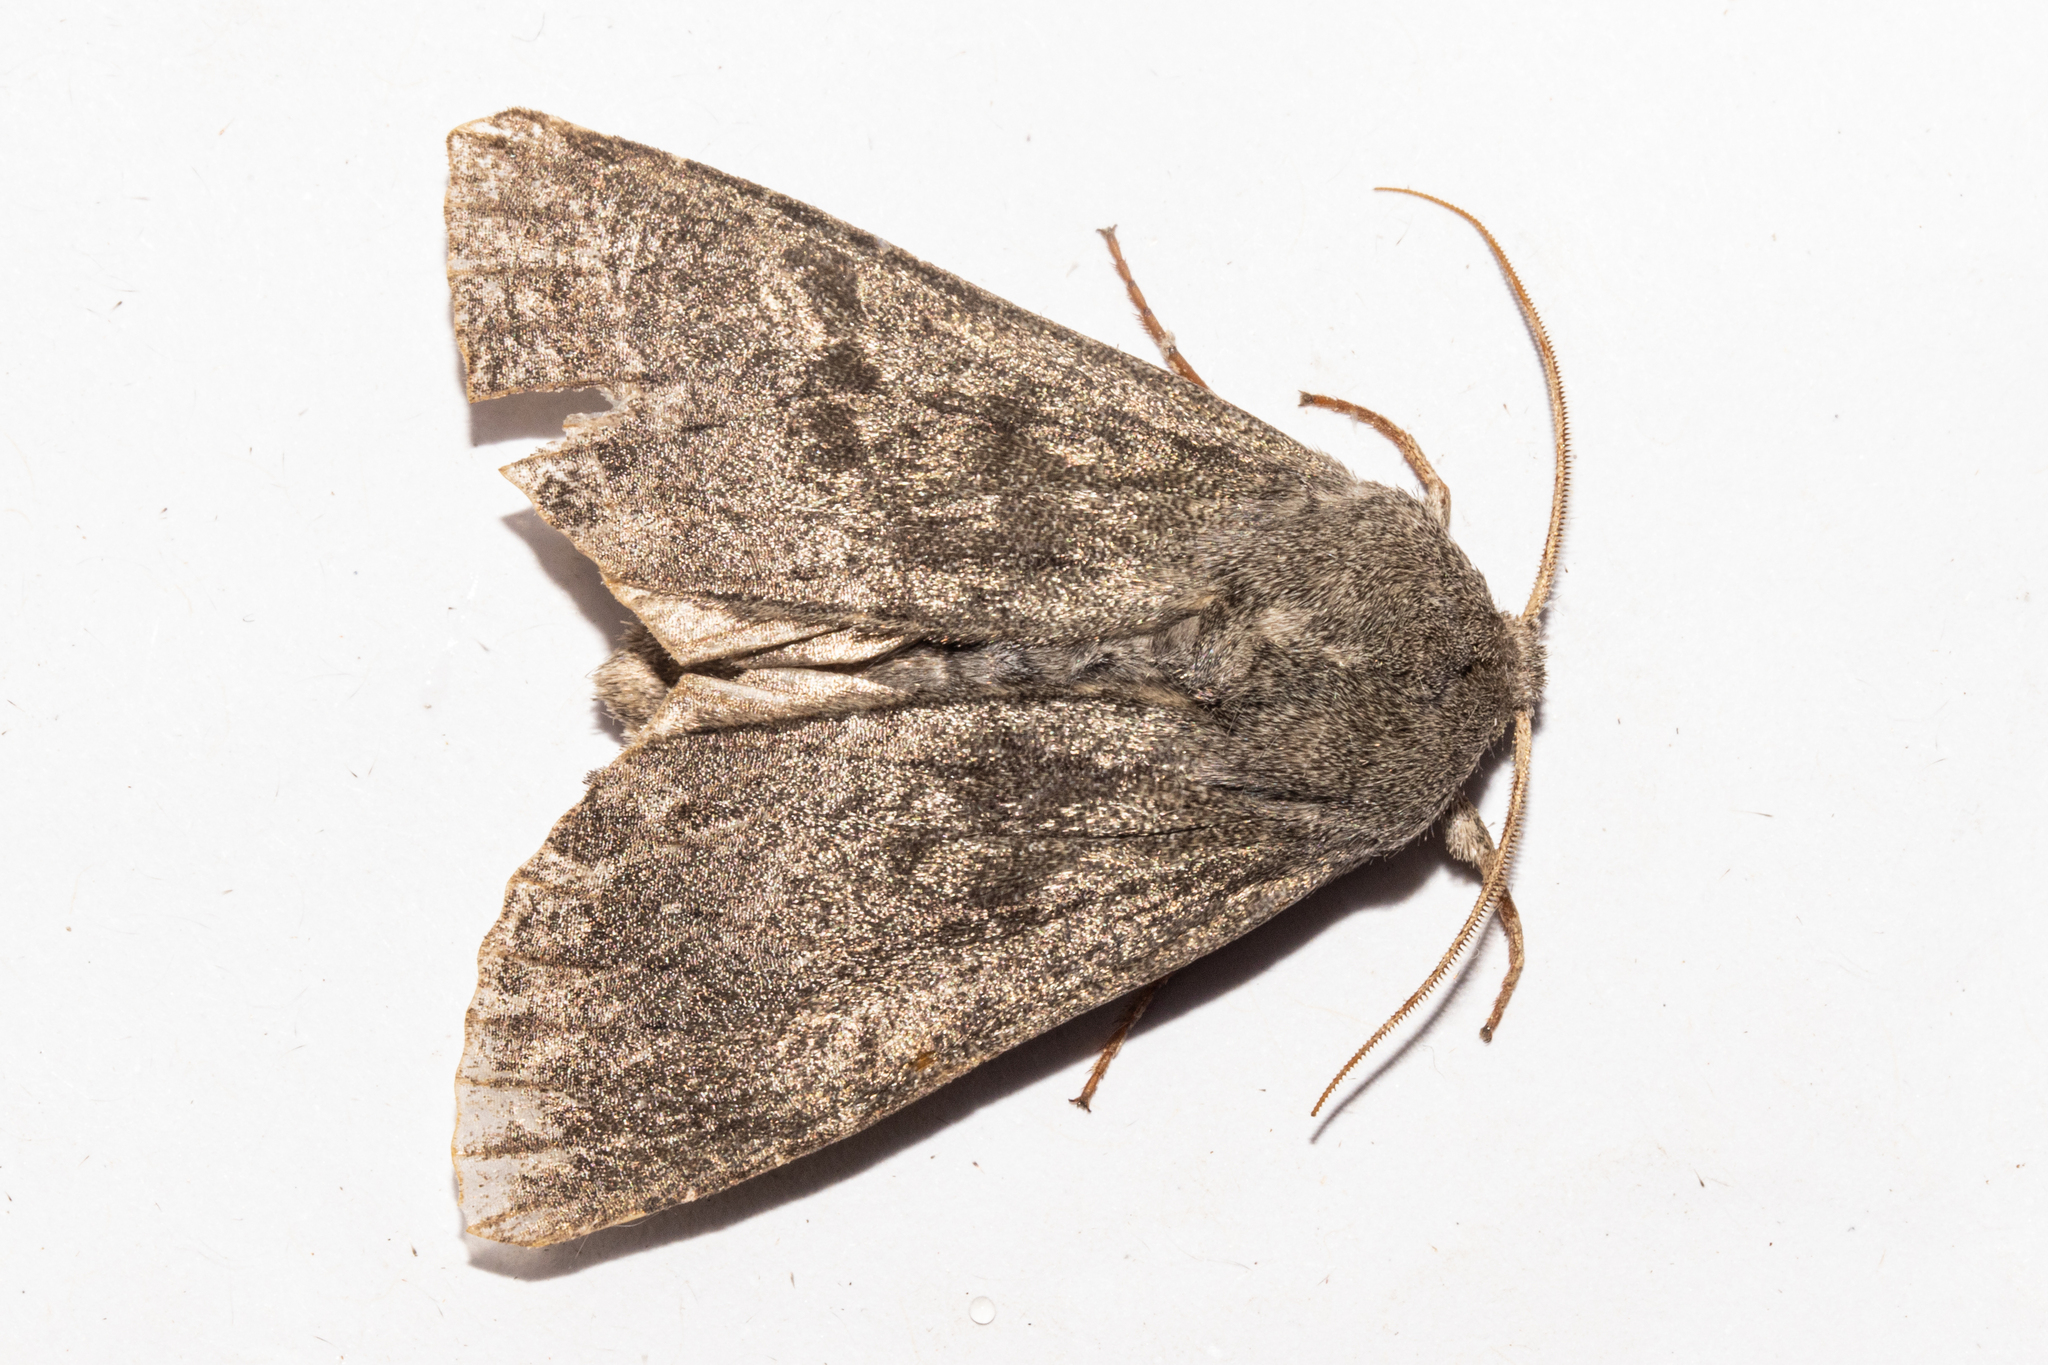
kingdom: Animalia
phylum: Arthropoda
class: Insecta
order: Lepidoptera
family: Noctuidae
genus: Ichneutica
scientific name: Ichneutica nullifera
